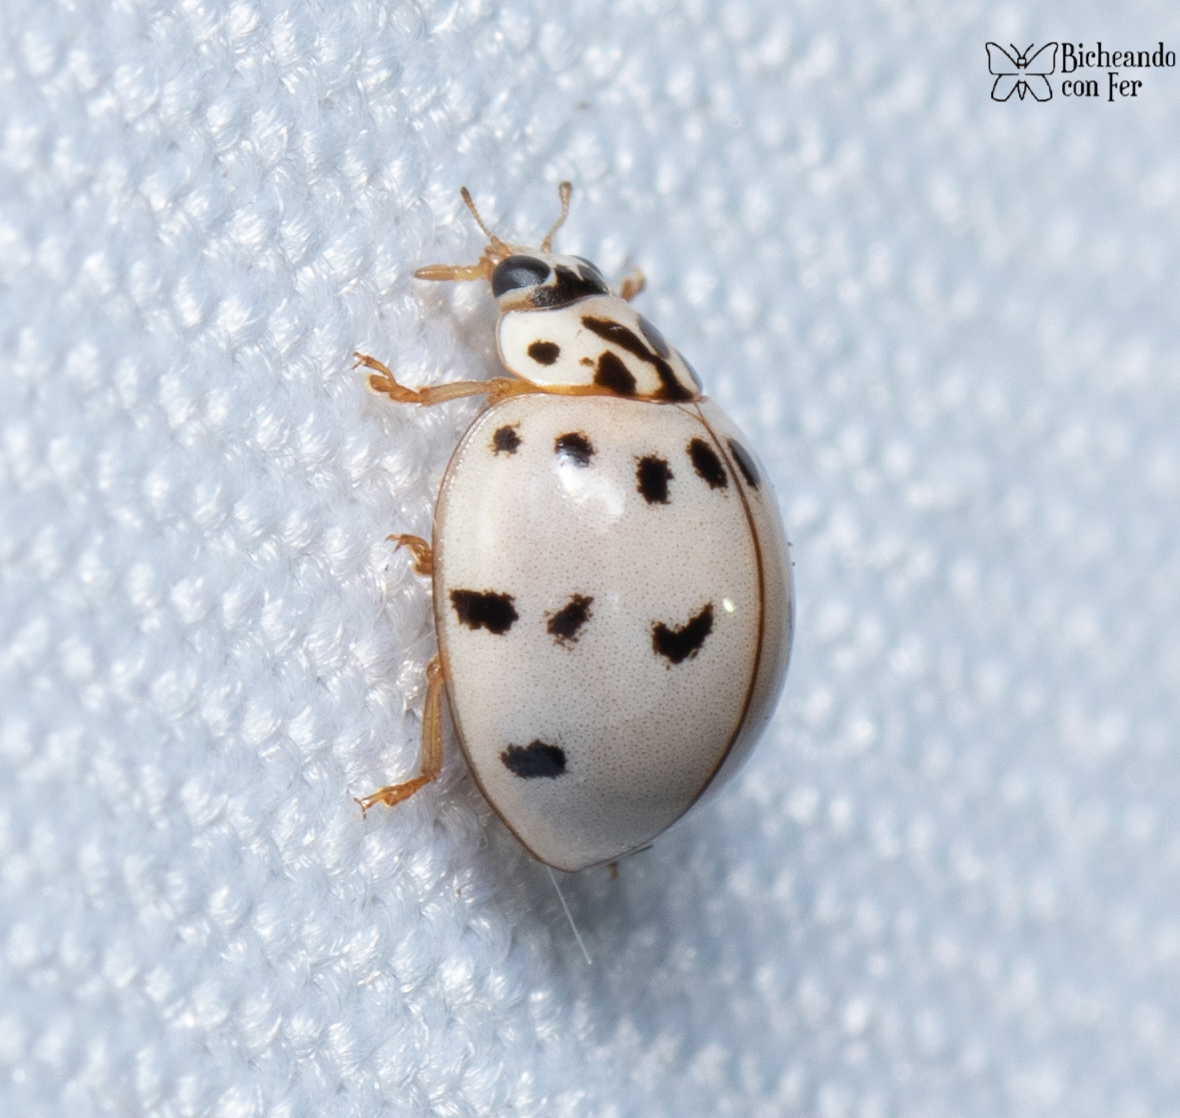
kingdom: Animalia
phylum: Arthropoda
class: Insecta
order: Coleoptera
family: Coccinellidae
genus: Olla
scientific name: Olla v-nigrum
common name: Ashy gray lady beetle
